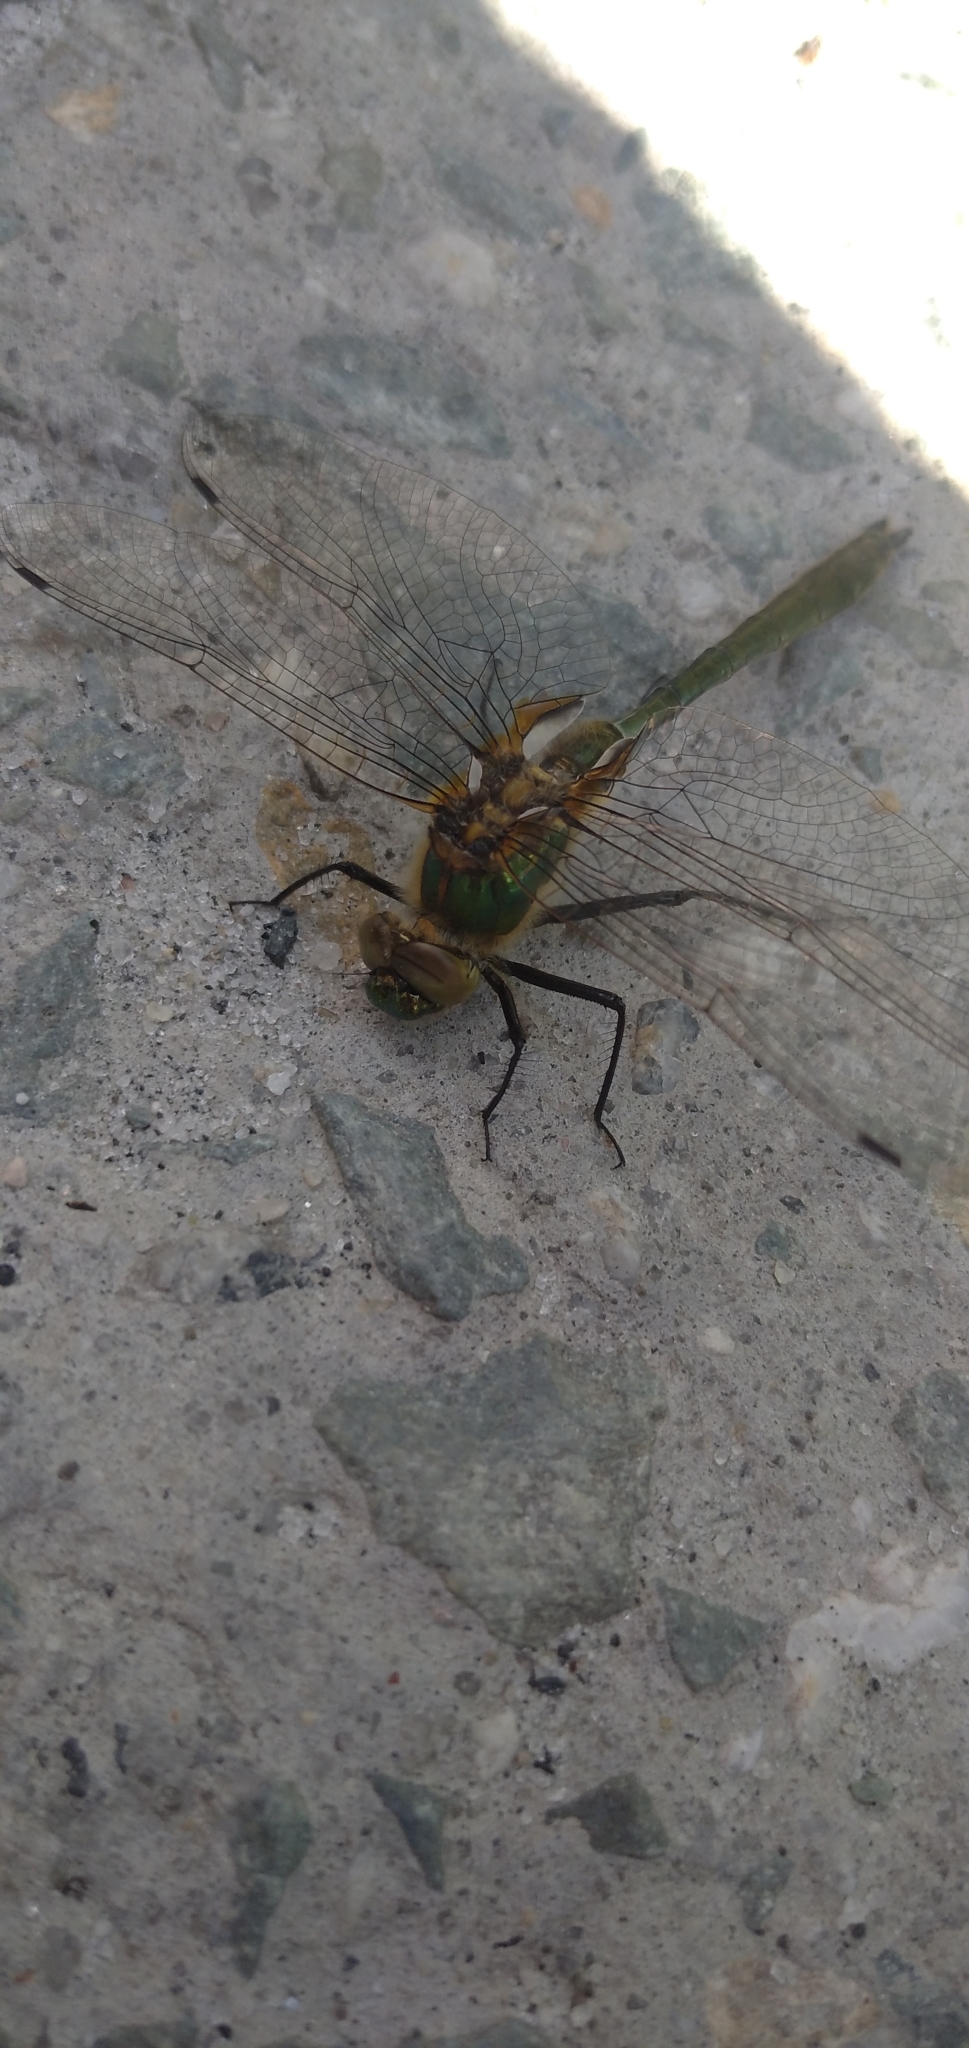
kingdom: Animalia
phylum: Arthropoda
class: Insecta
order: Odonata
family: Corduliidae
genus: Cordulia
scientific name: Cordulia aenea
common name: Downy emerald
